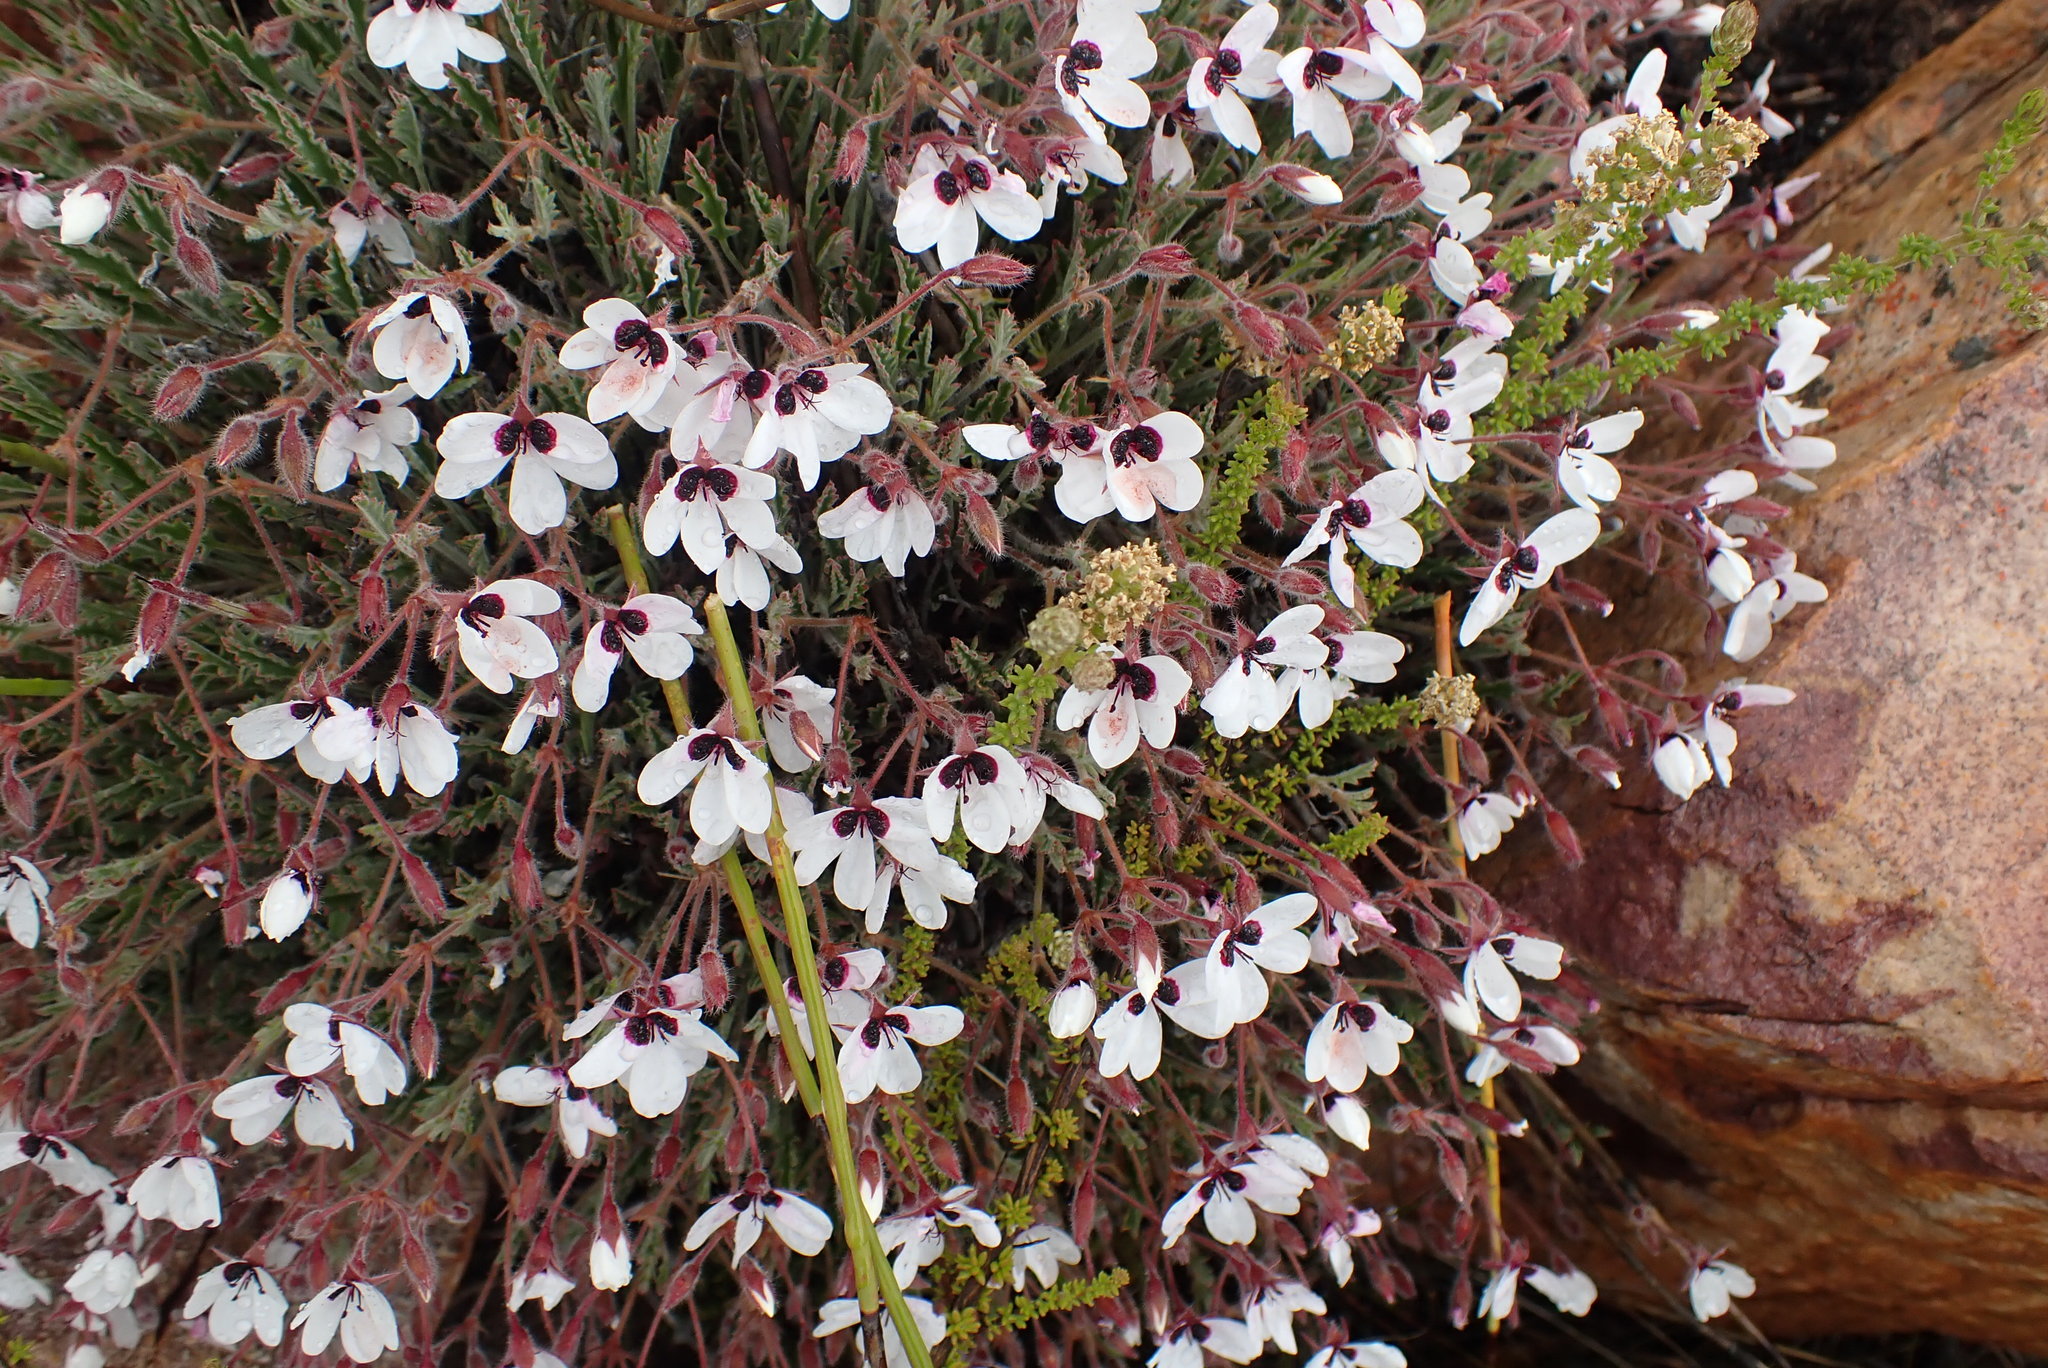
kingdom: Plantae
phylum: Tracheophyta
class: Magnoliopsida
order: Geraniales
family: Geraniaceae
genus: Pelargonium
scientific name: Pelargonium tricolor
